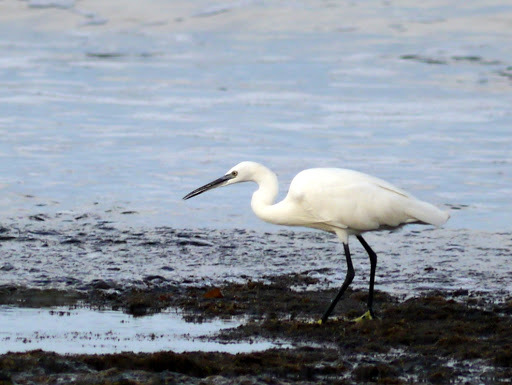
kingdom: Animalia
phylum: Chordata
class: Aves
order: Pelecaniformes
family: Ardeidae
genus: Egretta
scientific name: Egretta garzetta
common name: Little egret
